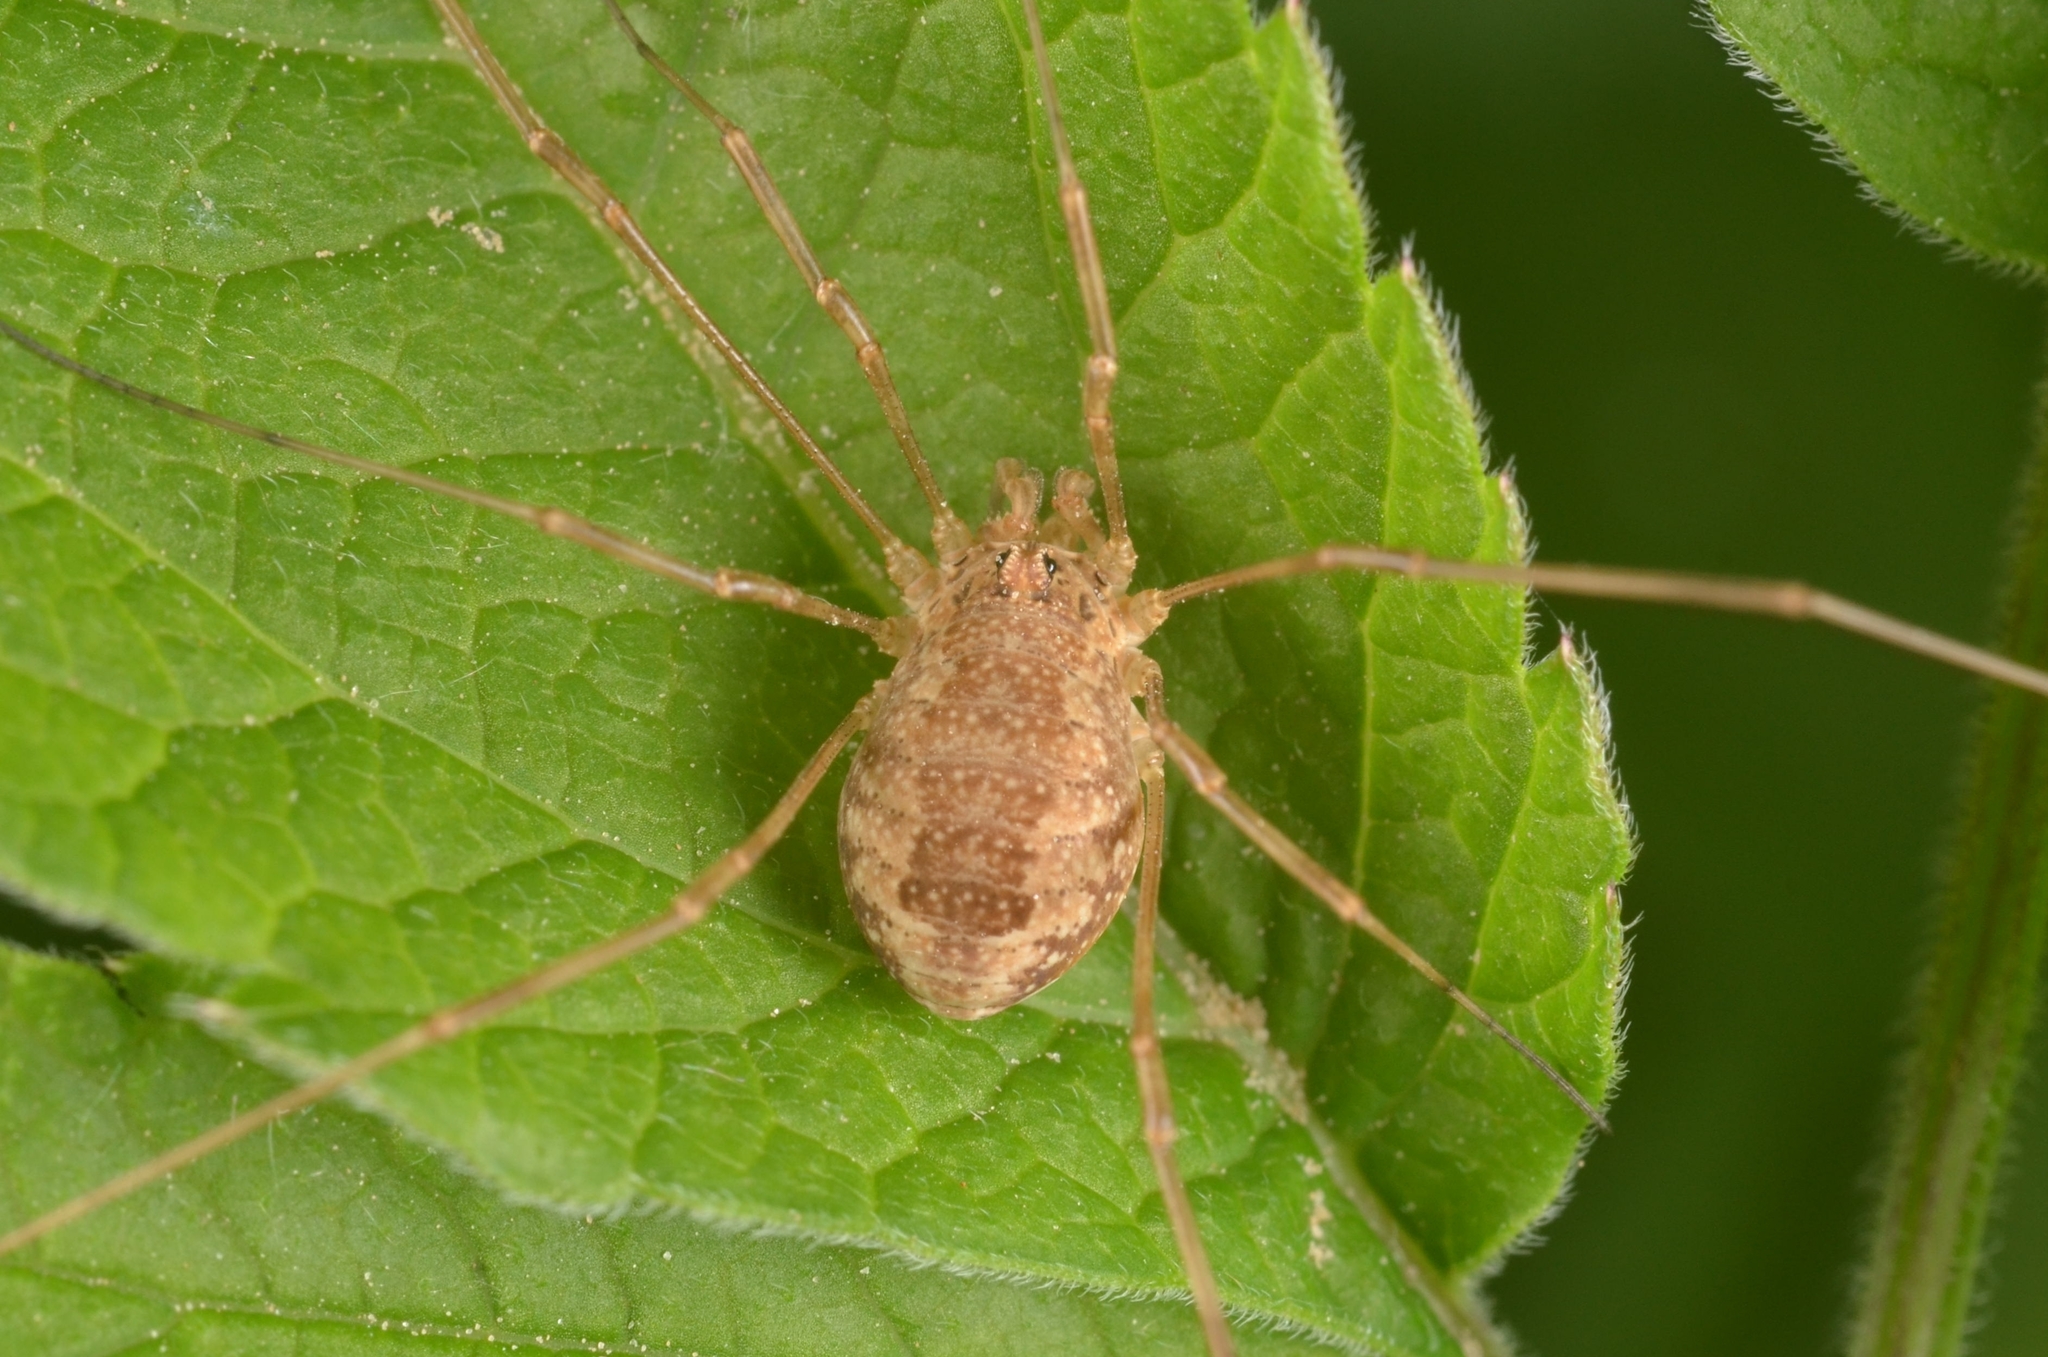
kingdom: Animalia
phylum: Arthropoda
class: Arachnida
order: Opiliones
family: Phalangiidae
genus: Rilaena
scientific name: Rilaena triangularis
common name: Spring harvestman
